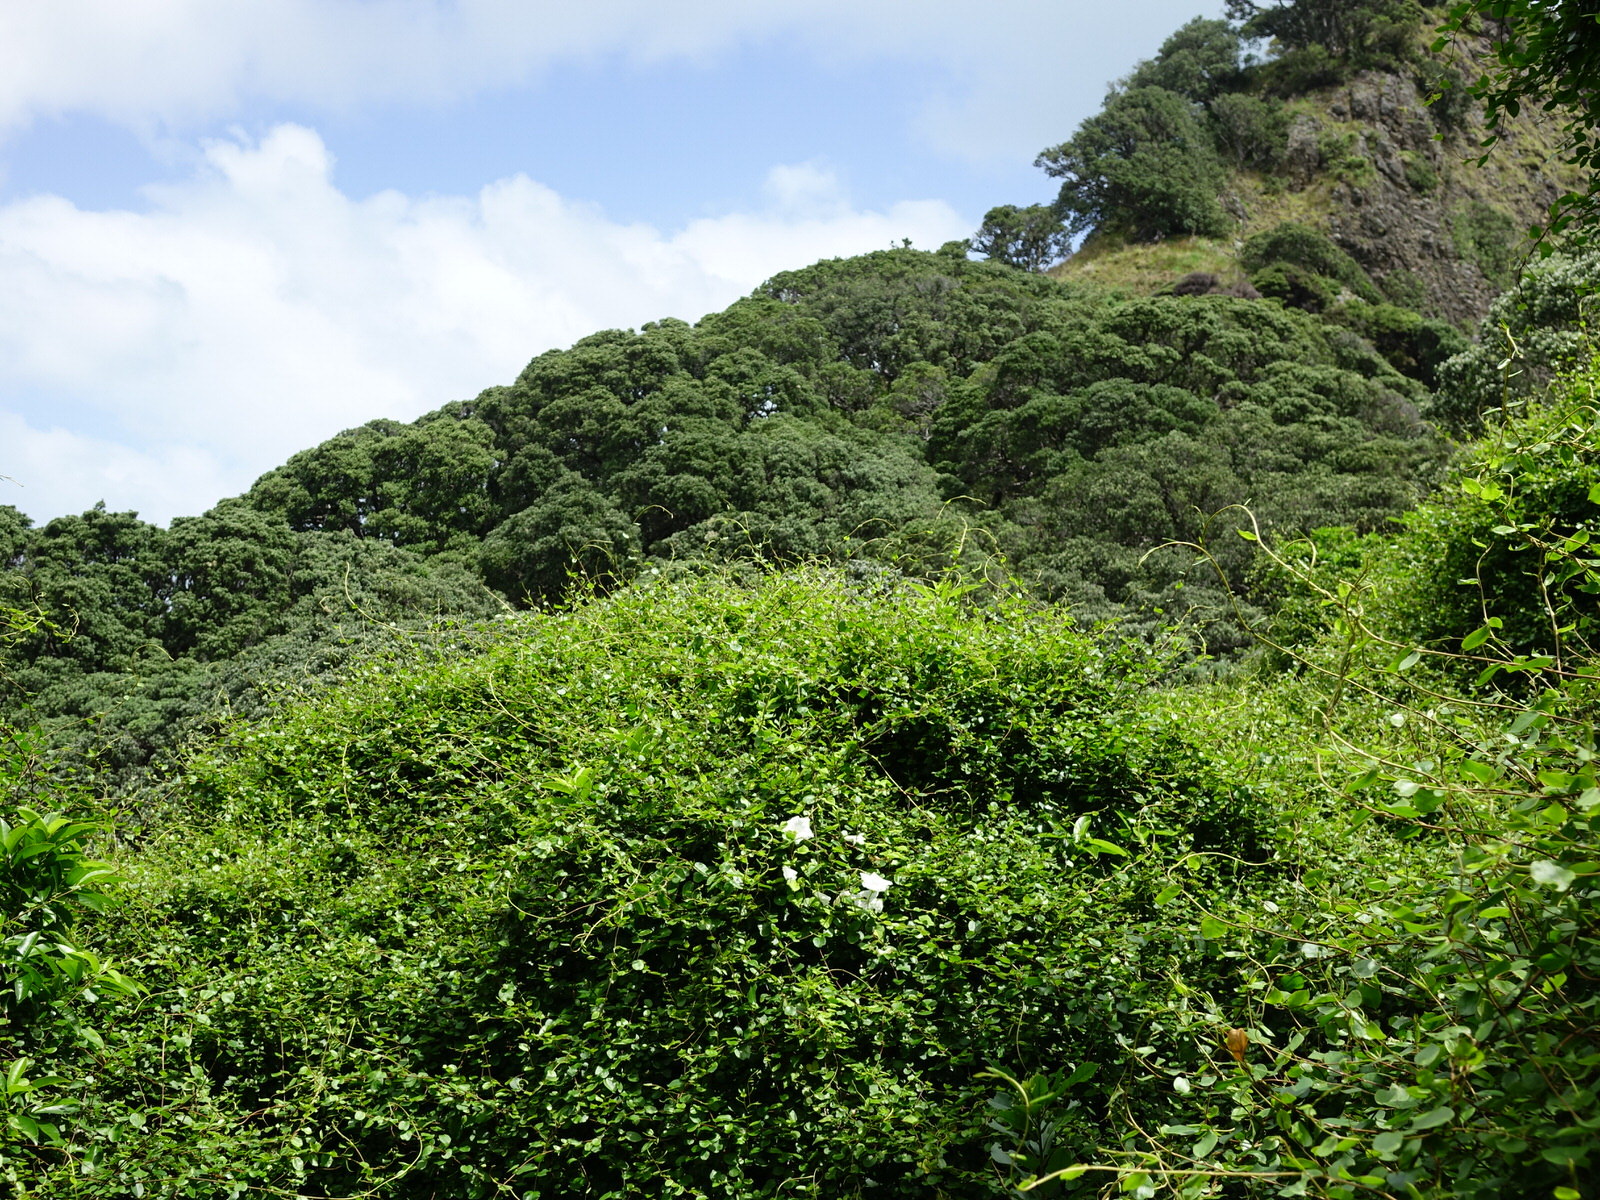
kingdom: Plantae
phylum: Tracheophyta
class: Magnoliopsida
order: Caryophyllales
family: Polygonaceae
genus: Muehlenbeckia
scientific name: Muehlenbeckia australis
